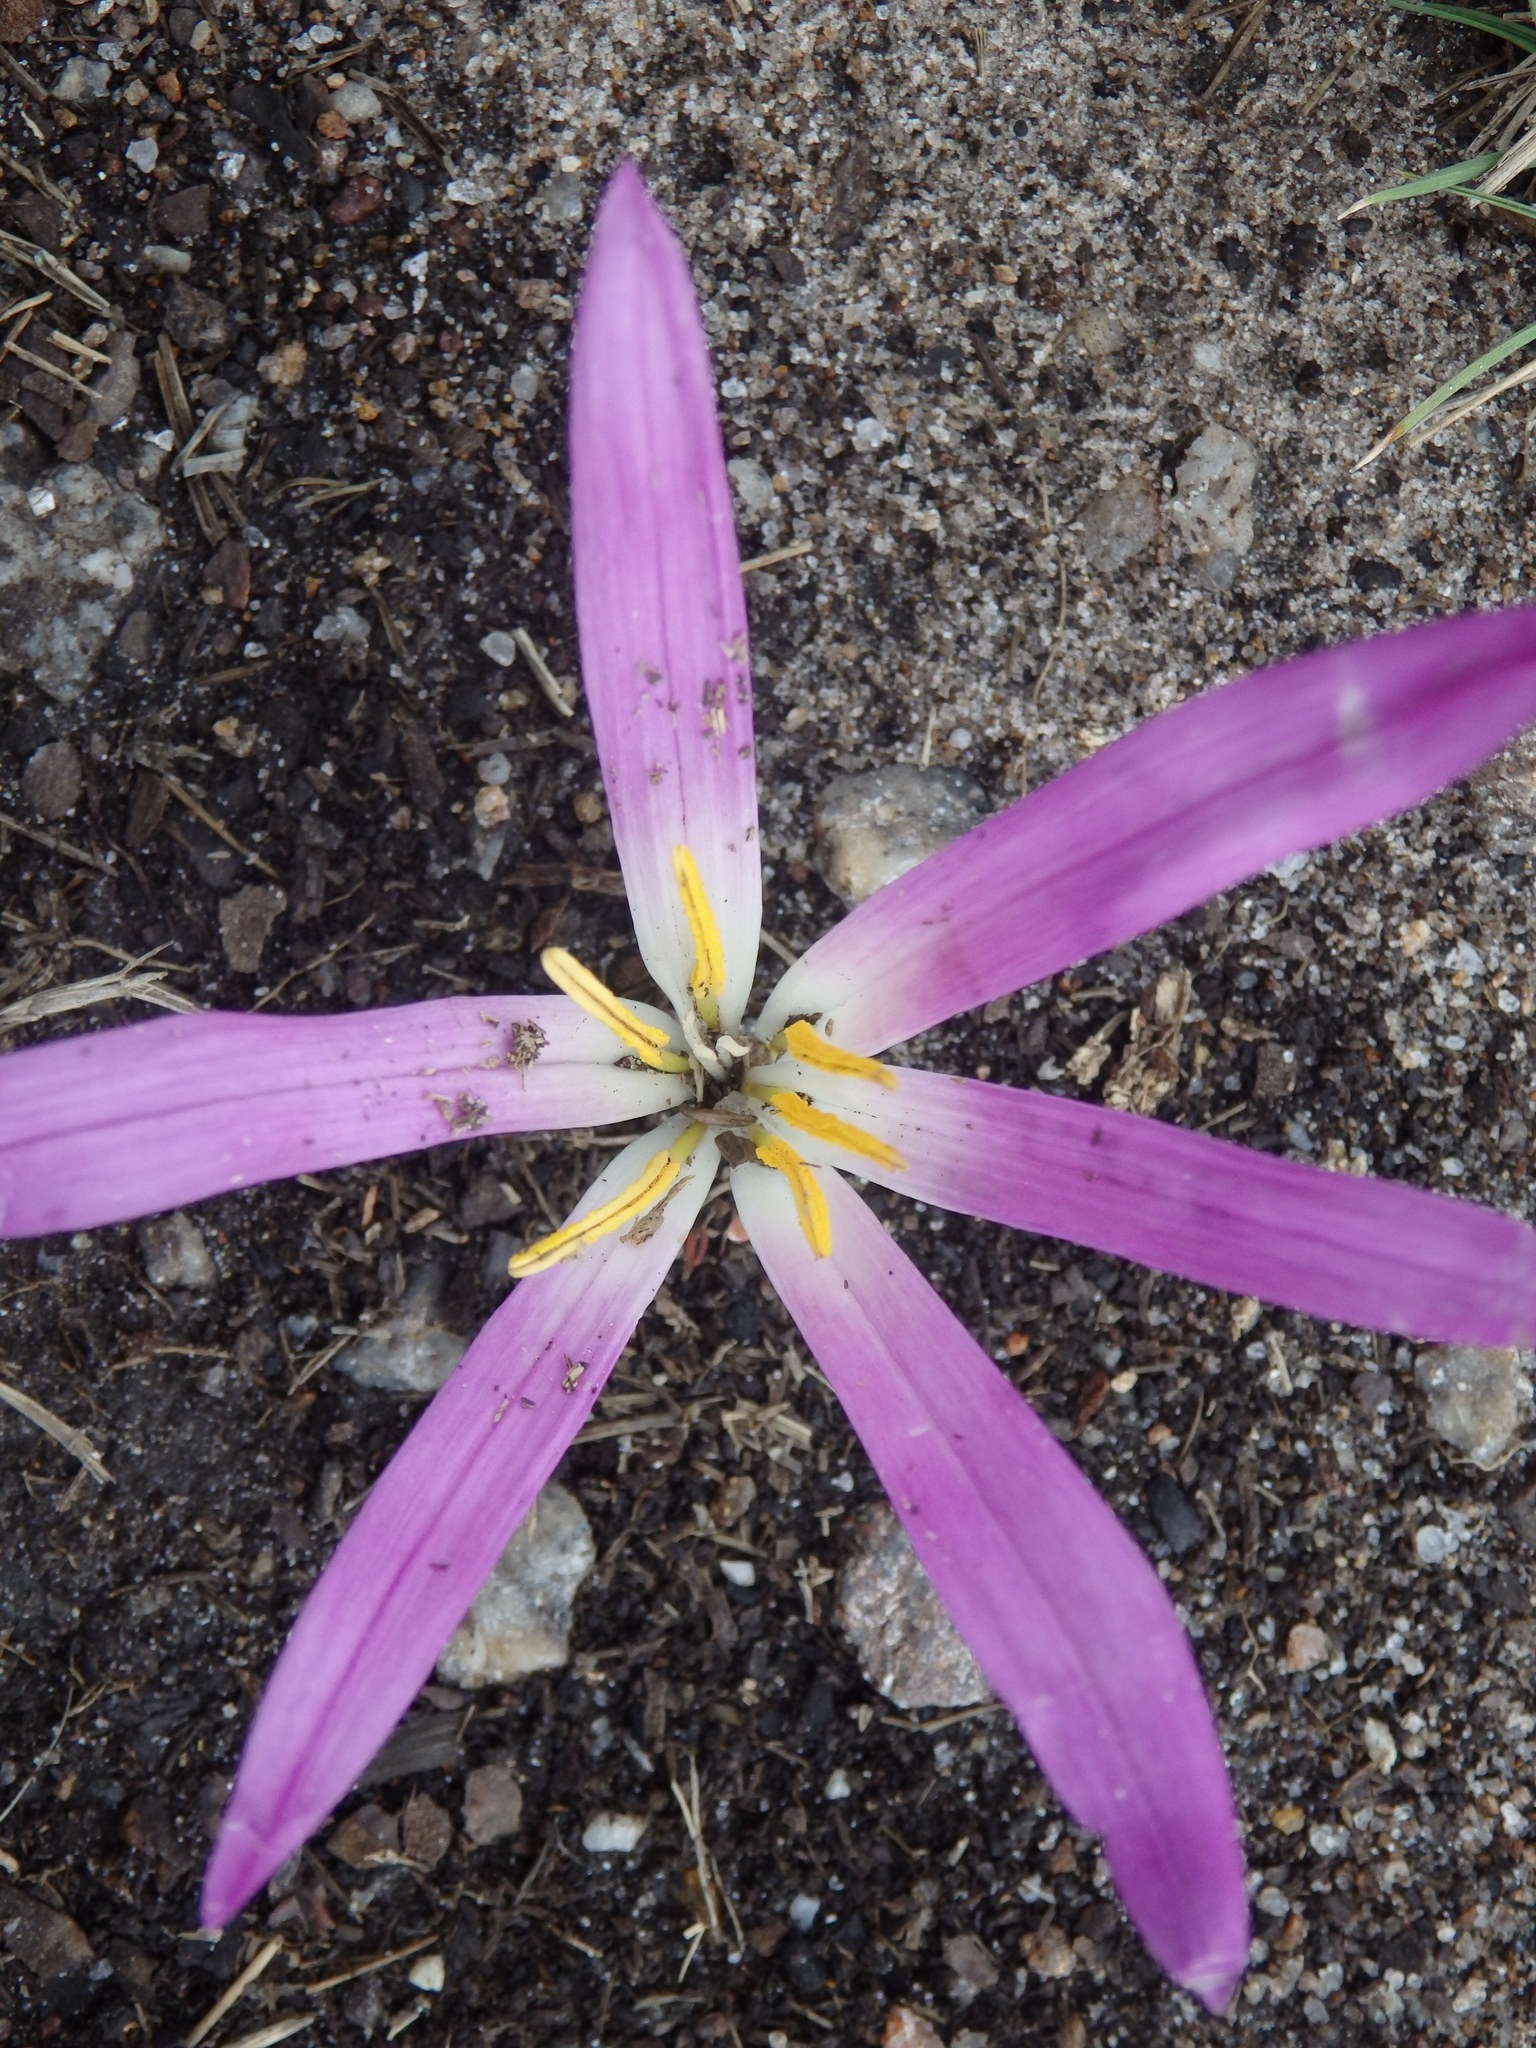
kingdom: Plantae
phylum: Tracheophyta
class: Liliopsida
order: Liliales
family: Colchicaceae
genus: Colchicum
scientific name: Colchicum montanum
